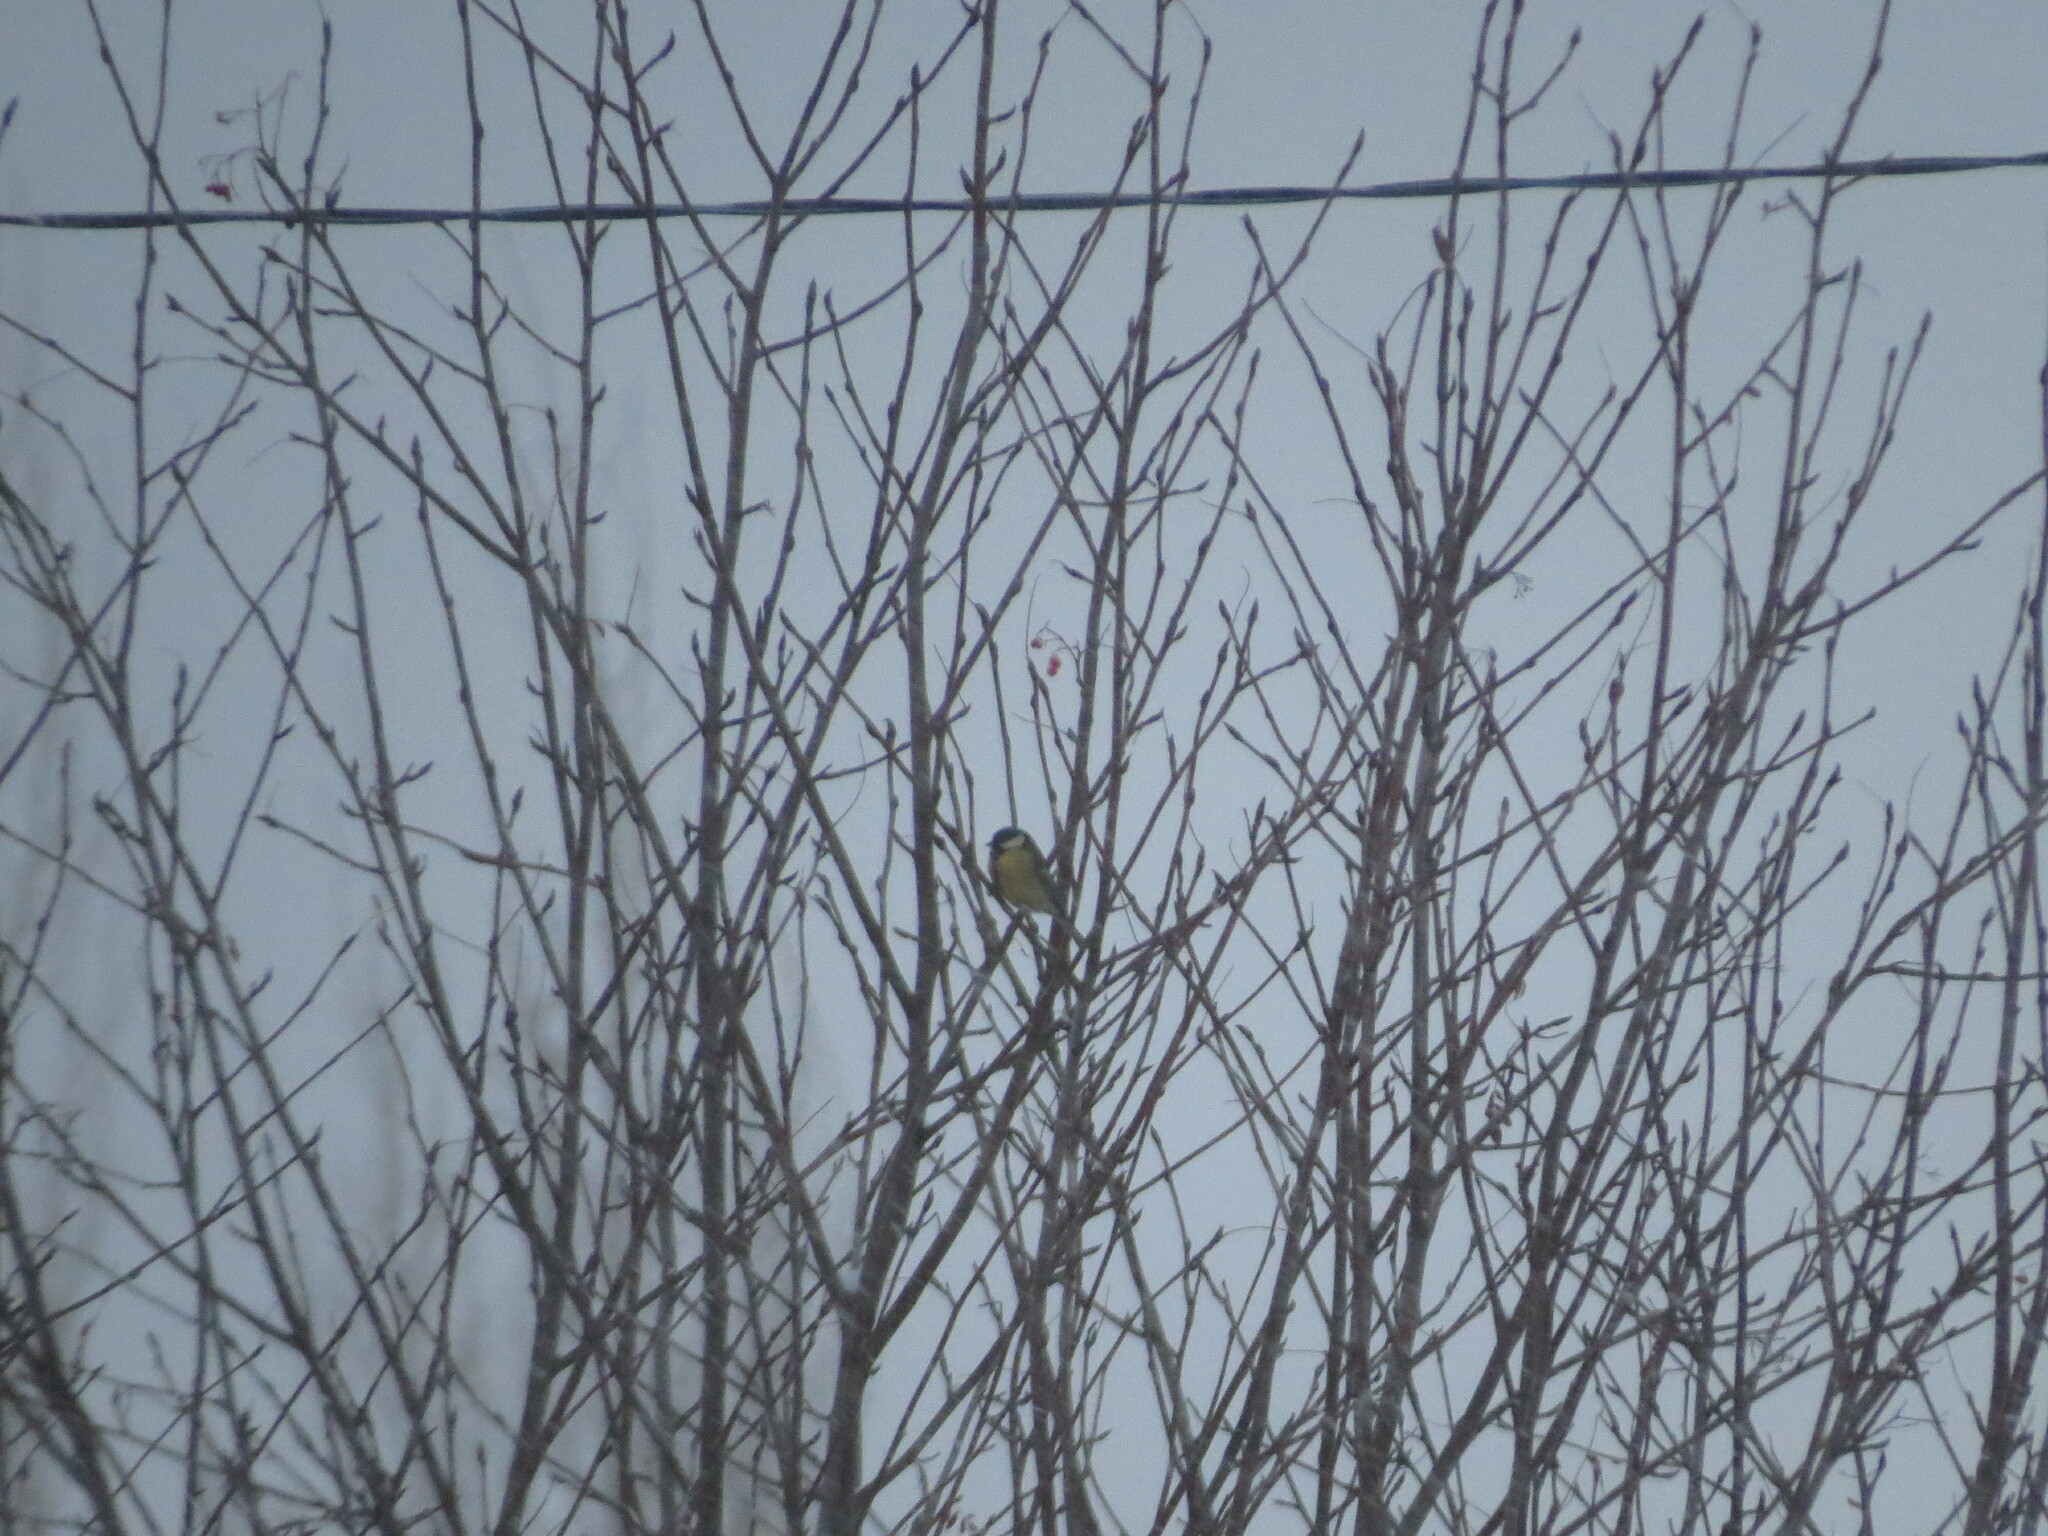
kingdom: Animalia
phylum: Chordata
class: Aves
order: Passeriformes
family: Paridae
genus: Parus
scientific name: Parus major
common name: Great tit
